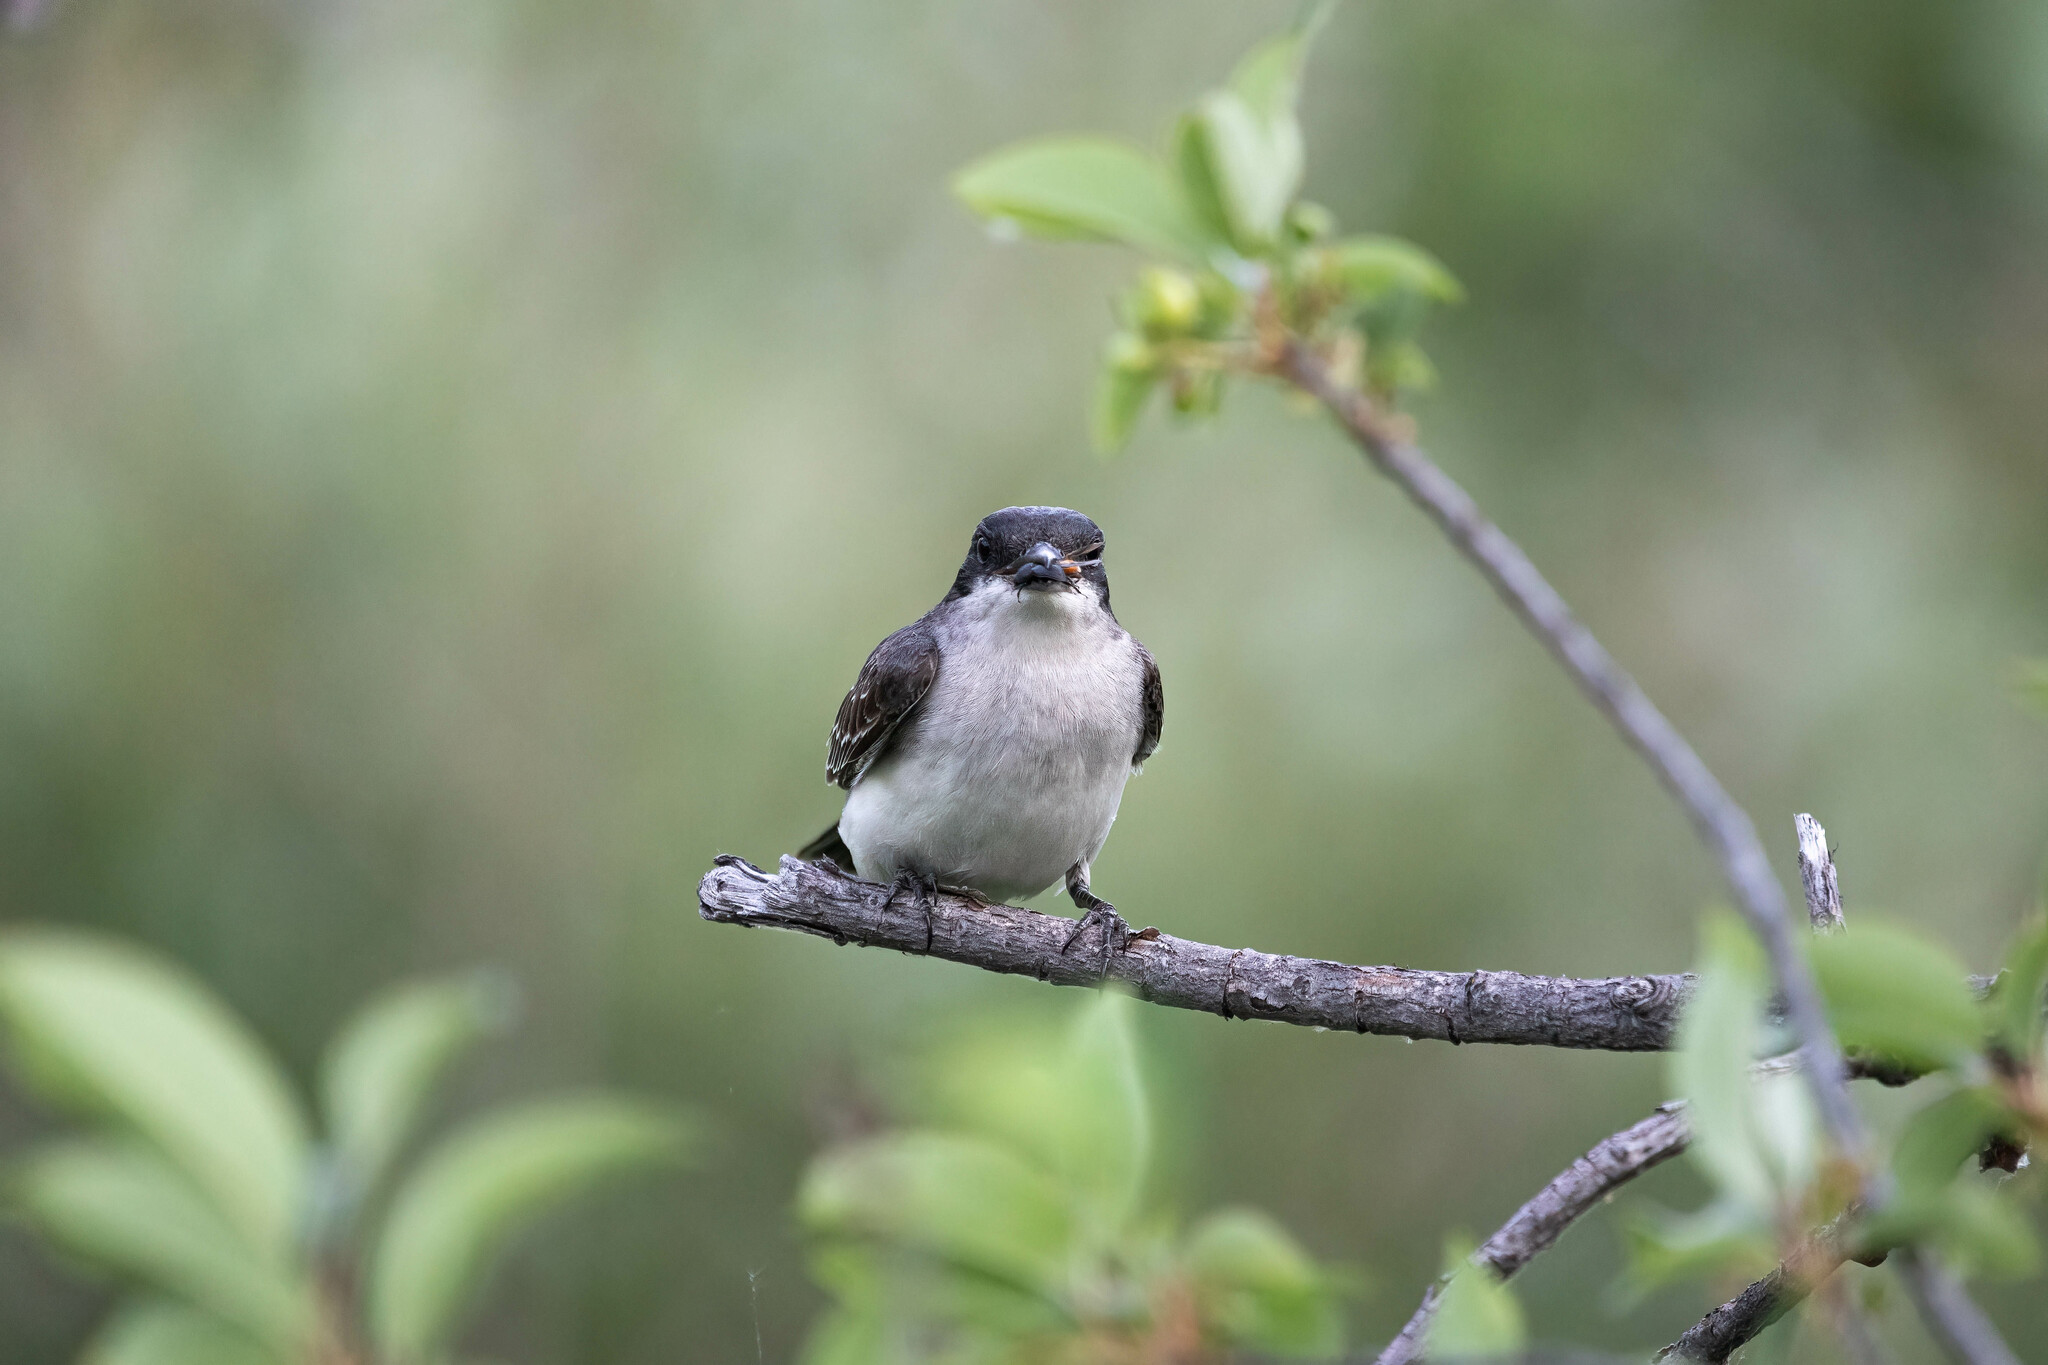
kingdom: Animalia
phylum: Chordata
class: Aves
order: Passeriformes
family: Tyrannidae
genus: Tyrannus
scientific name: Tyrannus tyrannus
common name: Eastern kingbird
